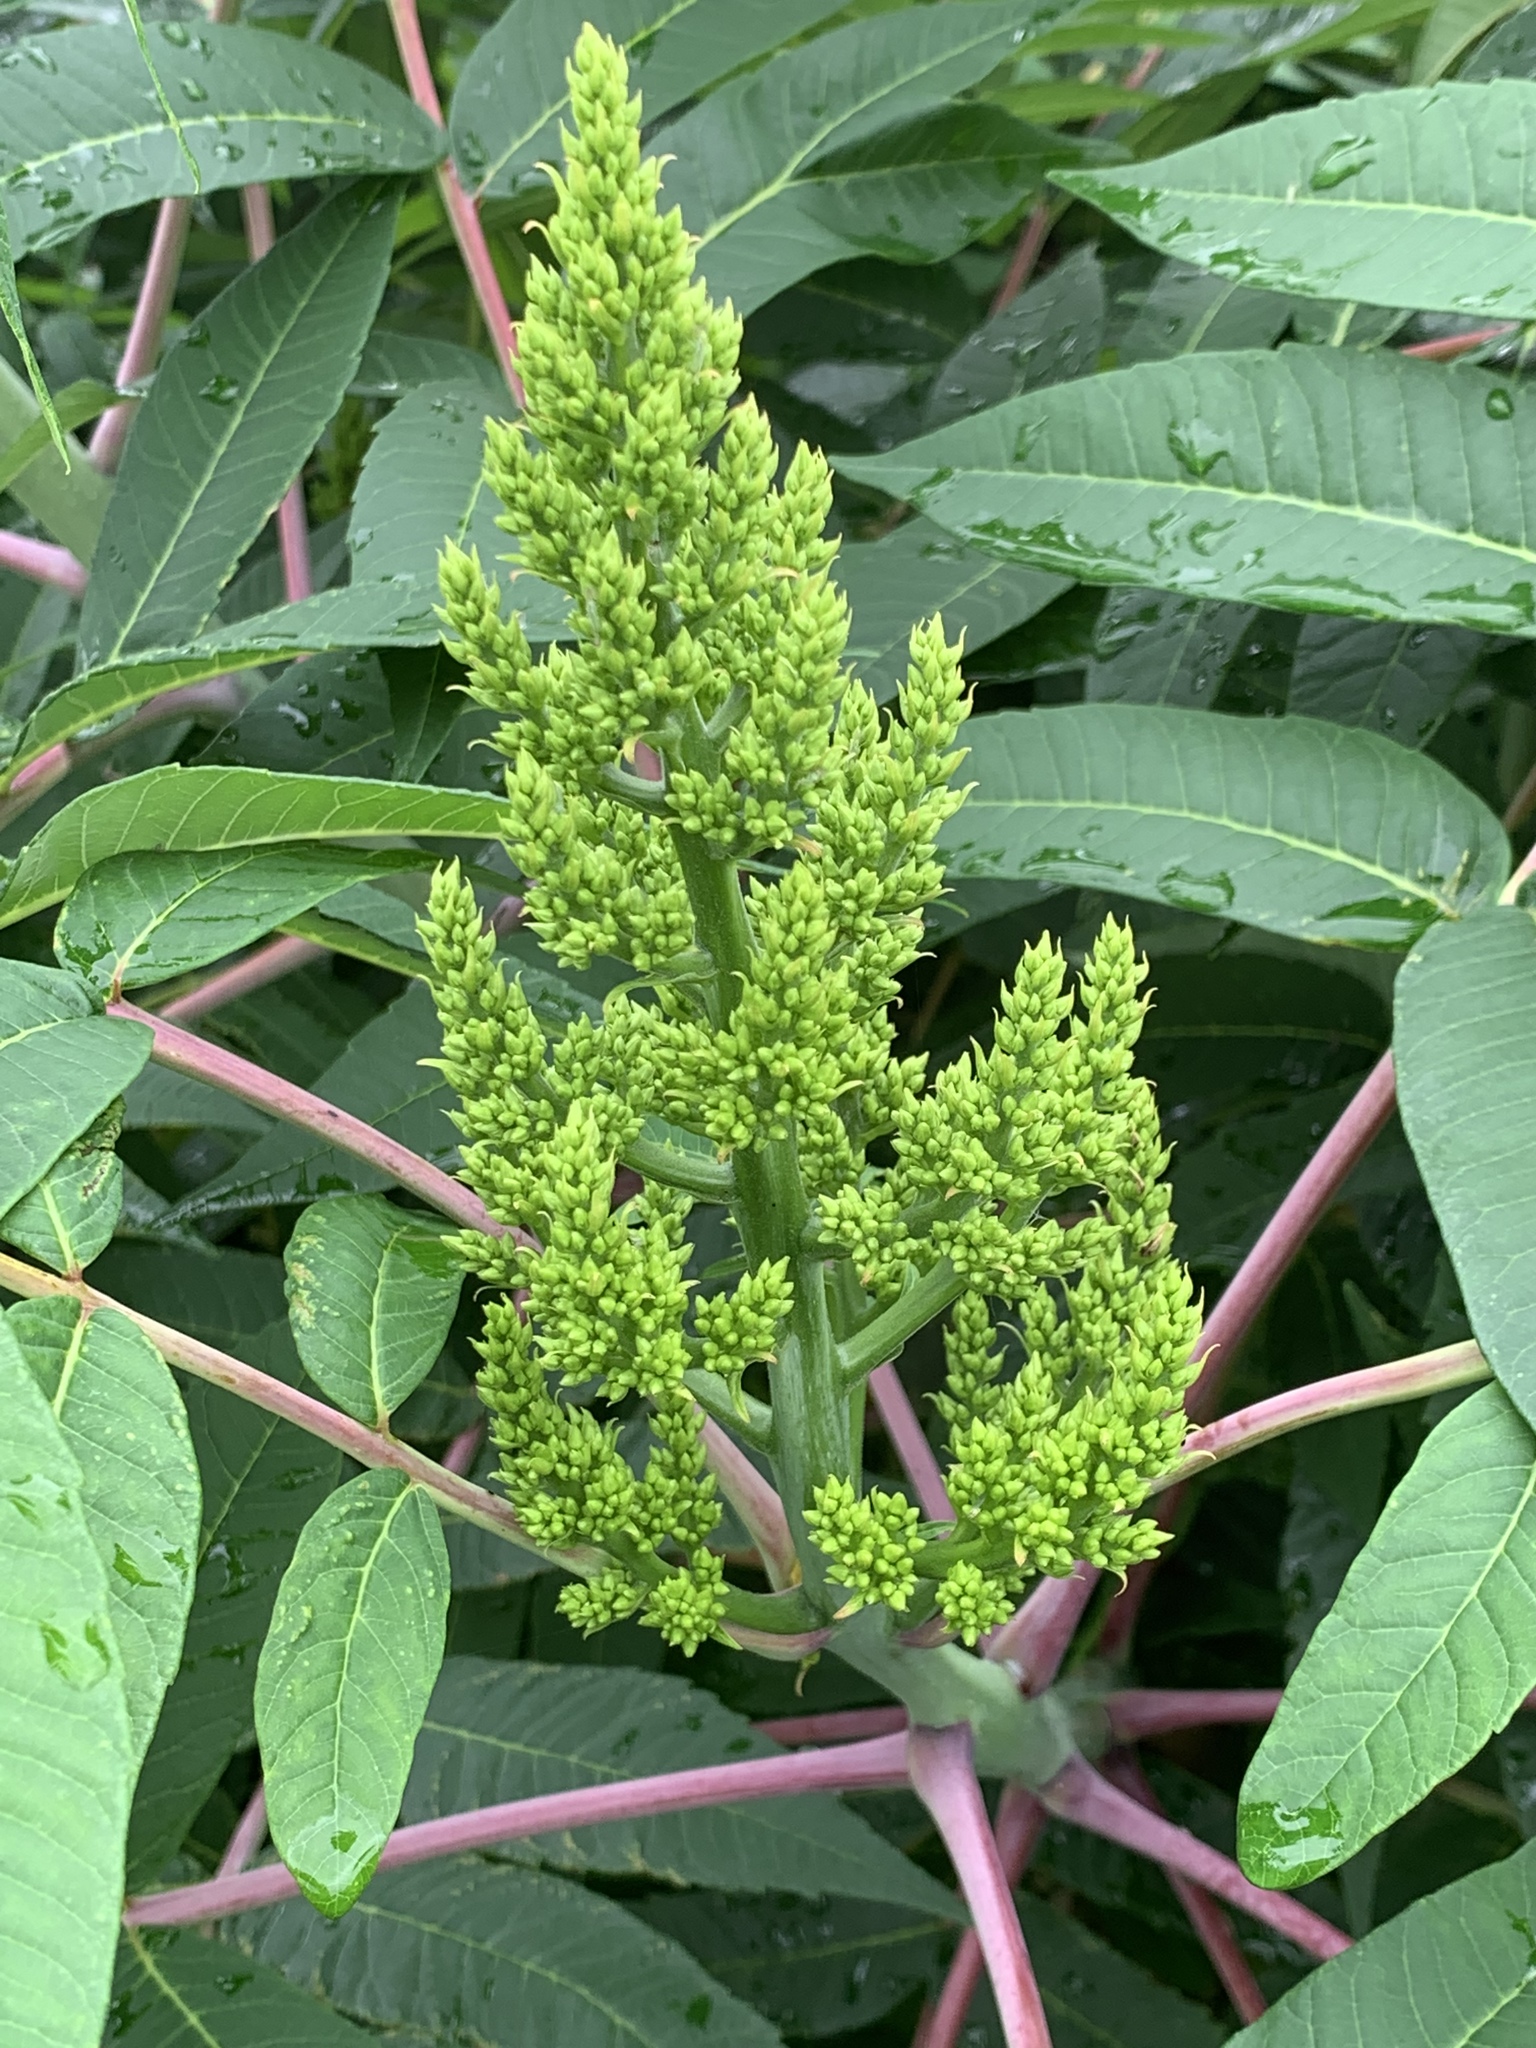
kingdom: Plantae
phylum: Tracheophyta
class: Magnoliopsida
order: Sapindales
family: Anacardiaceae
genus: Rhus
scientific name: Rhus glabra
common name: Scarlet sumac
